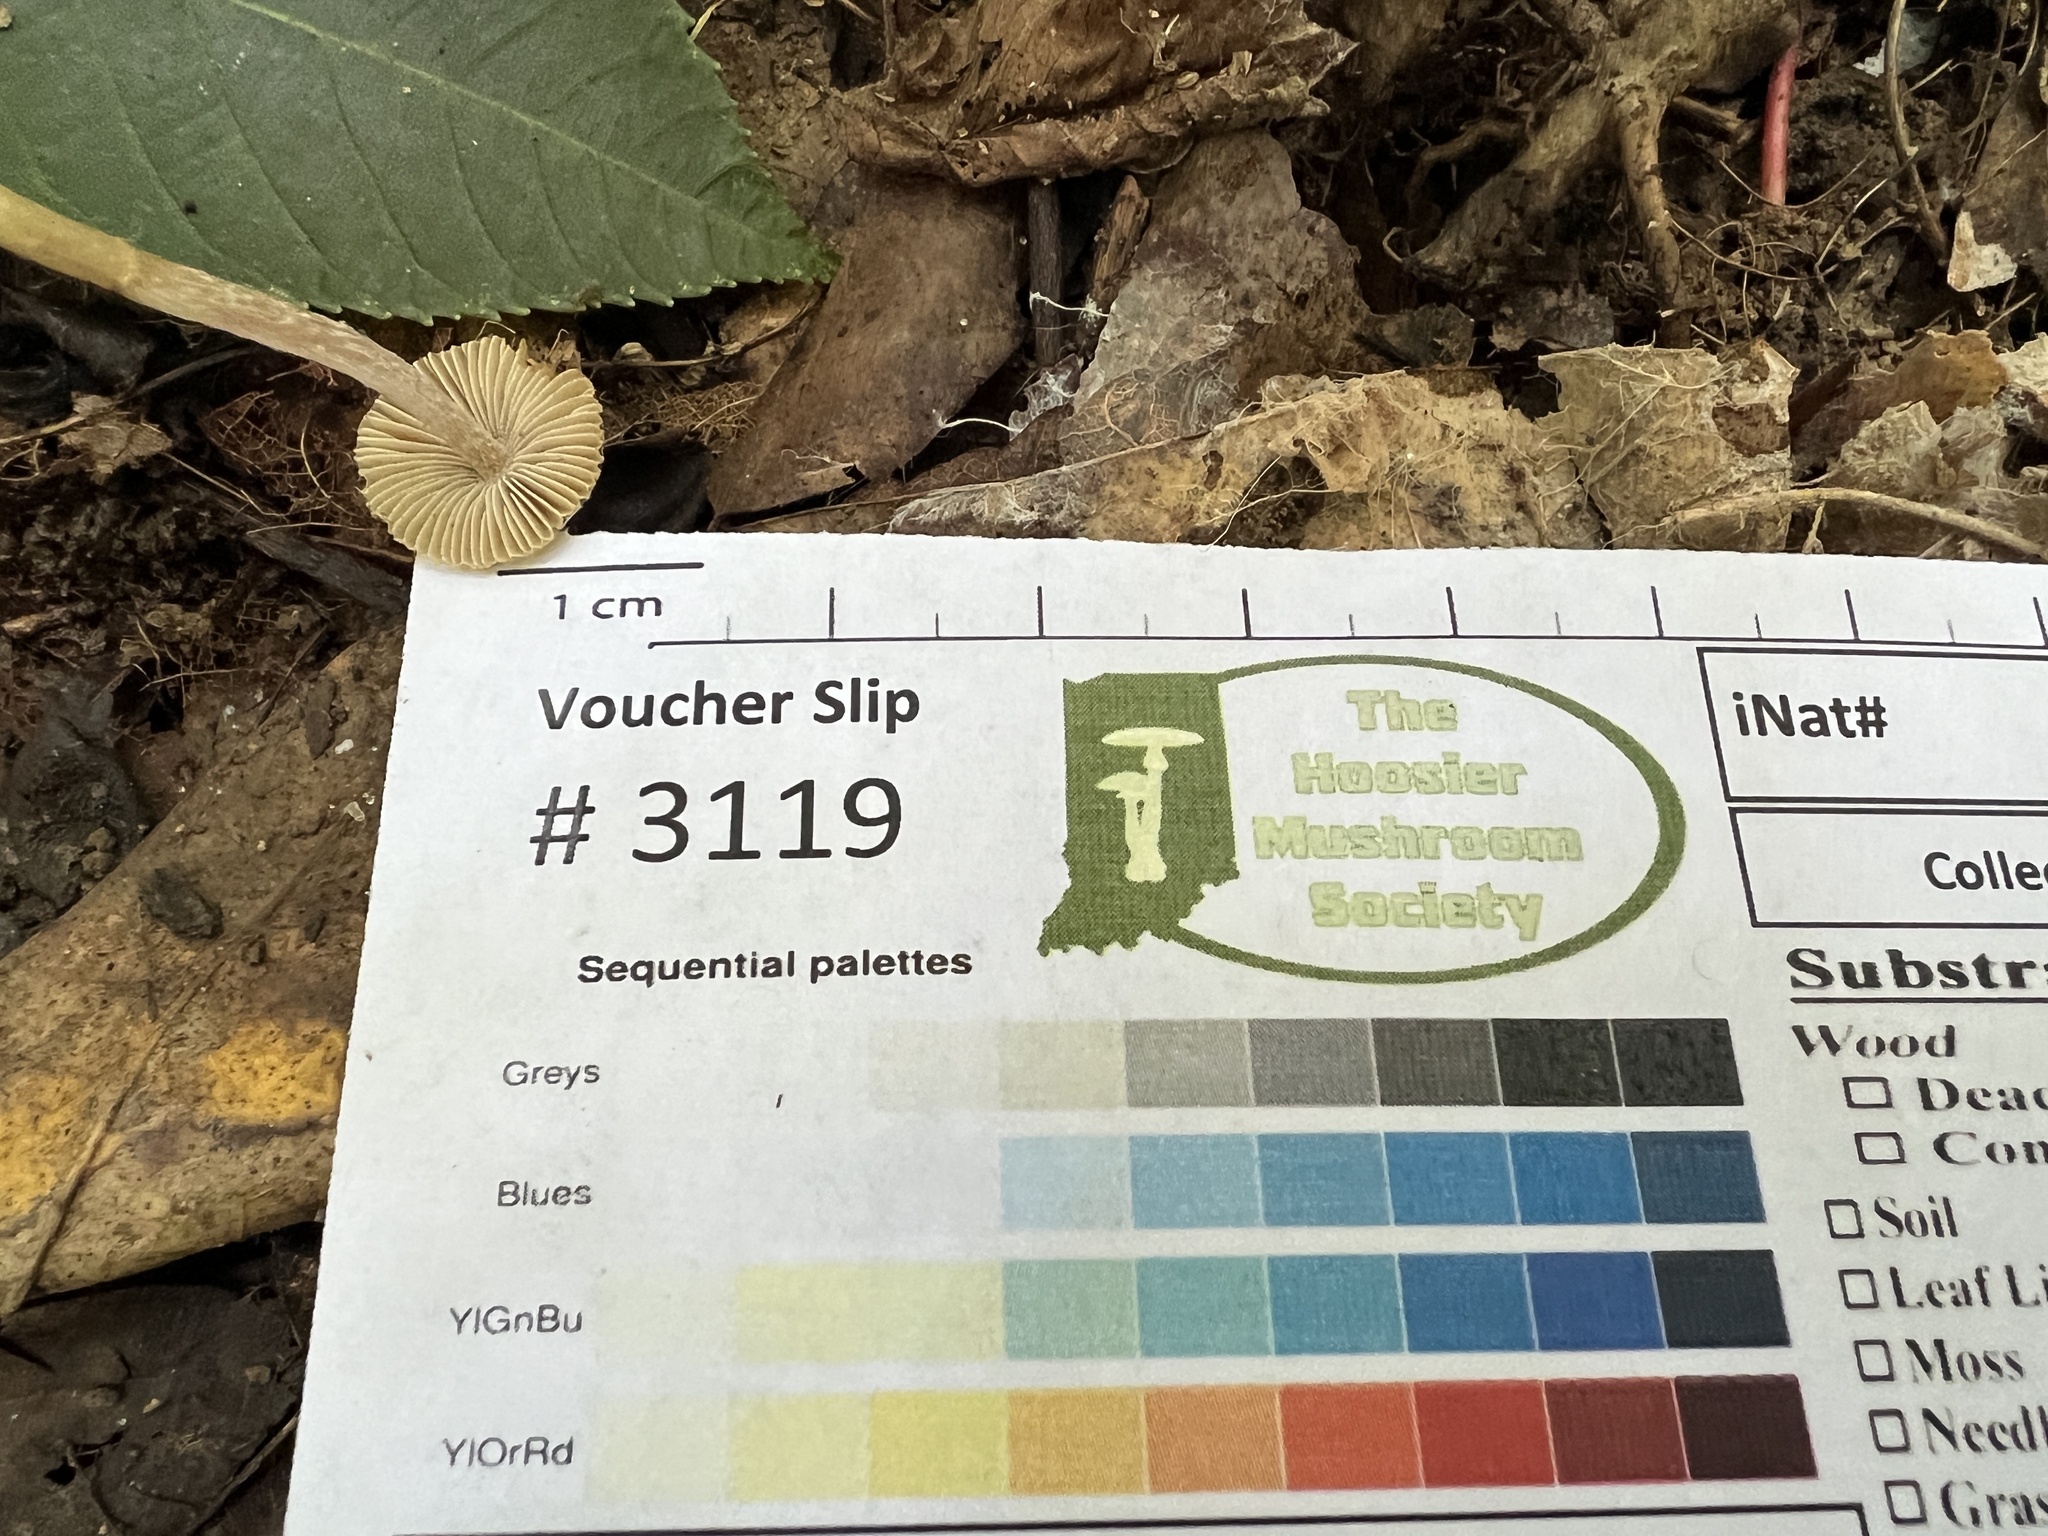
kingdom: Fungi
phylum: Basidiomycota
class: Agaricomycetes
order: Agaricales
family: Inocybaceae
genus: Pseudosperma
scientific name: Pseudosperma friabile
